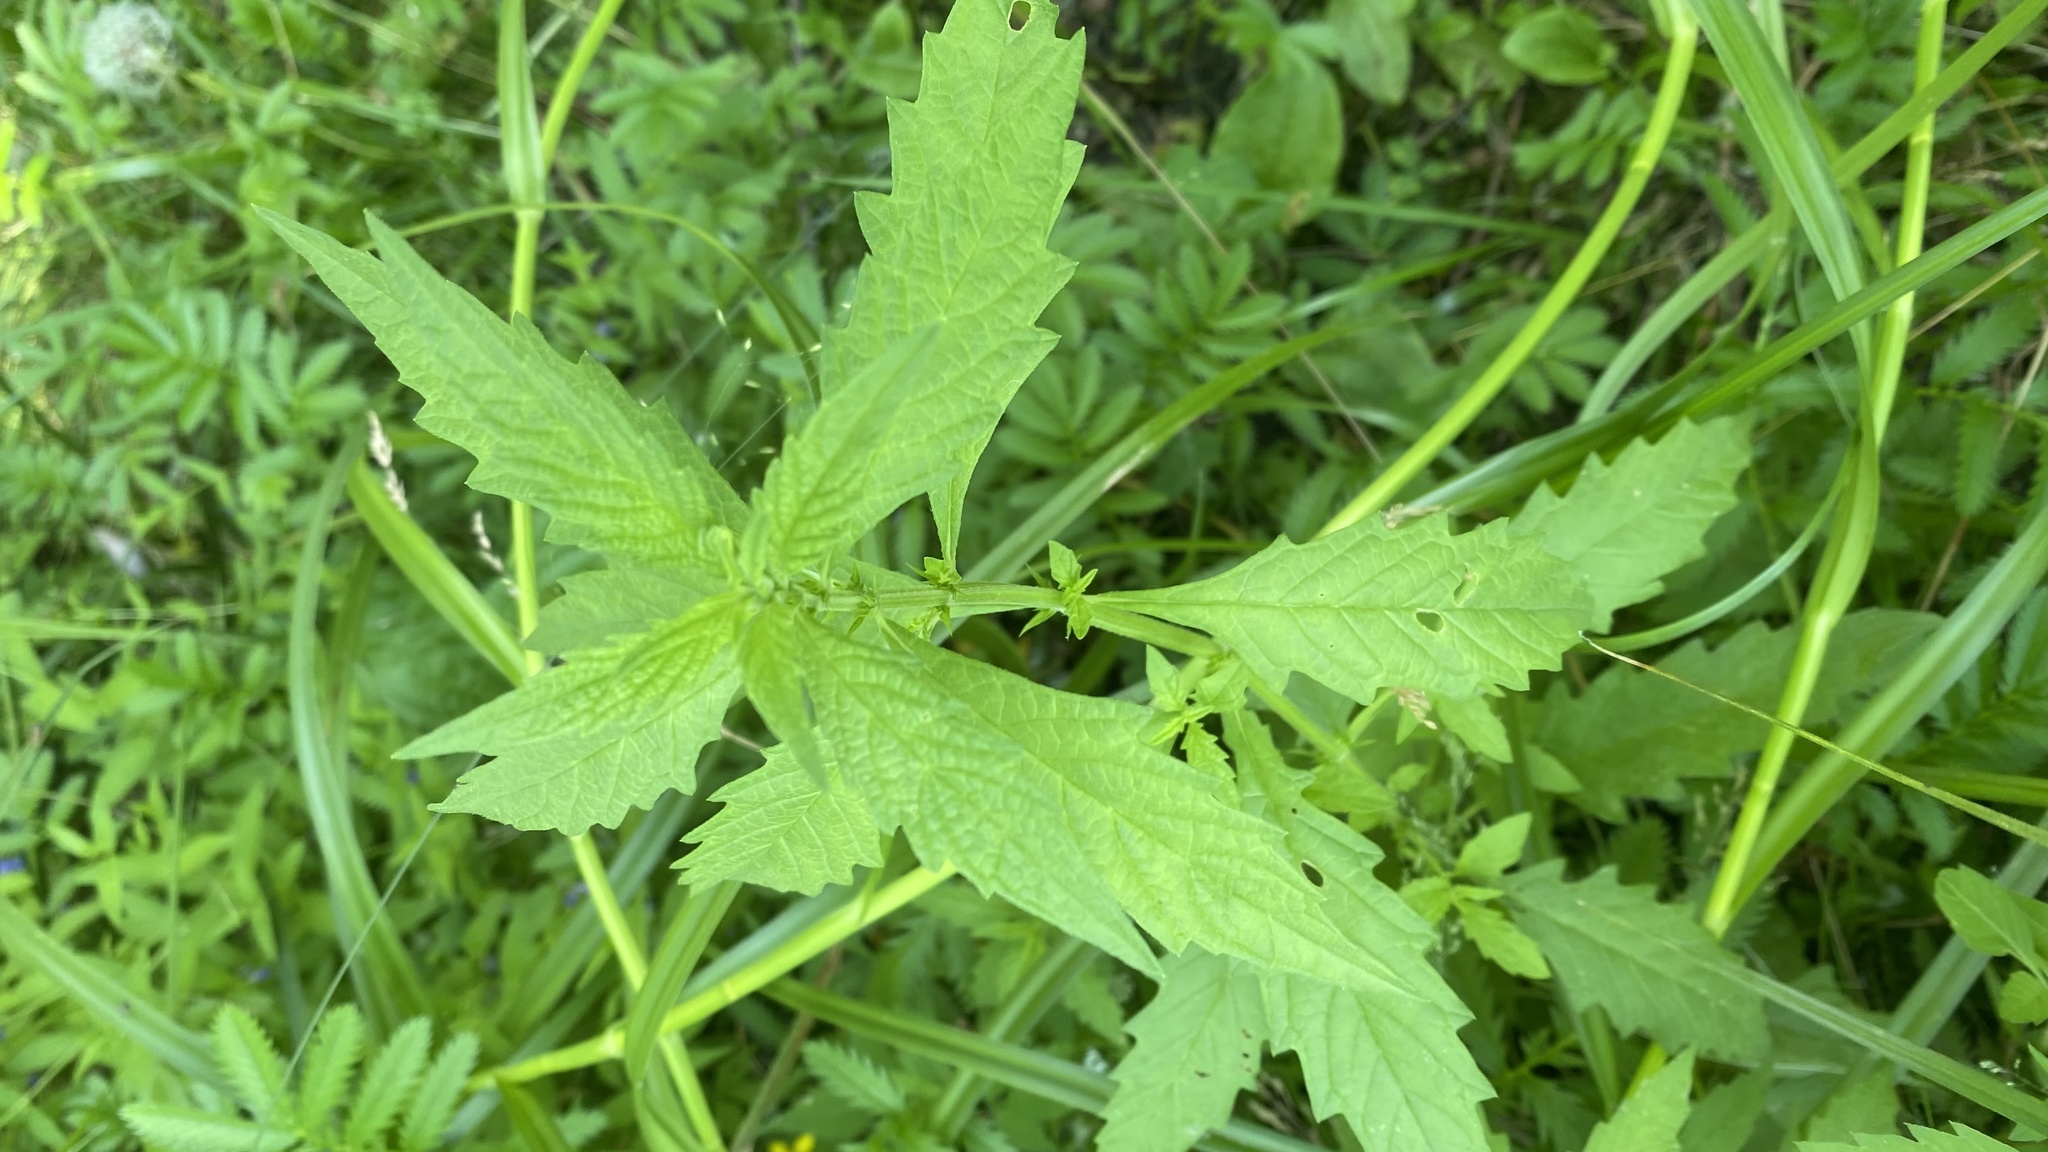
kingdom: Plantae
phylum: Tracheophyta
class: Magnoliopsida
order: Lamiales
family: Lamiaceae
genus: Lycopus
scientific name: Lycopus europaeus
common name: European bugleweed
